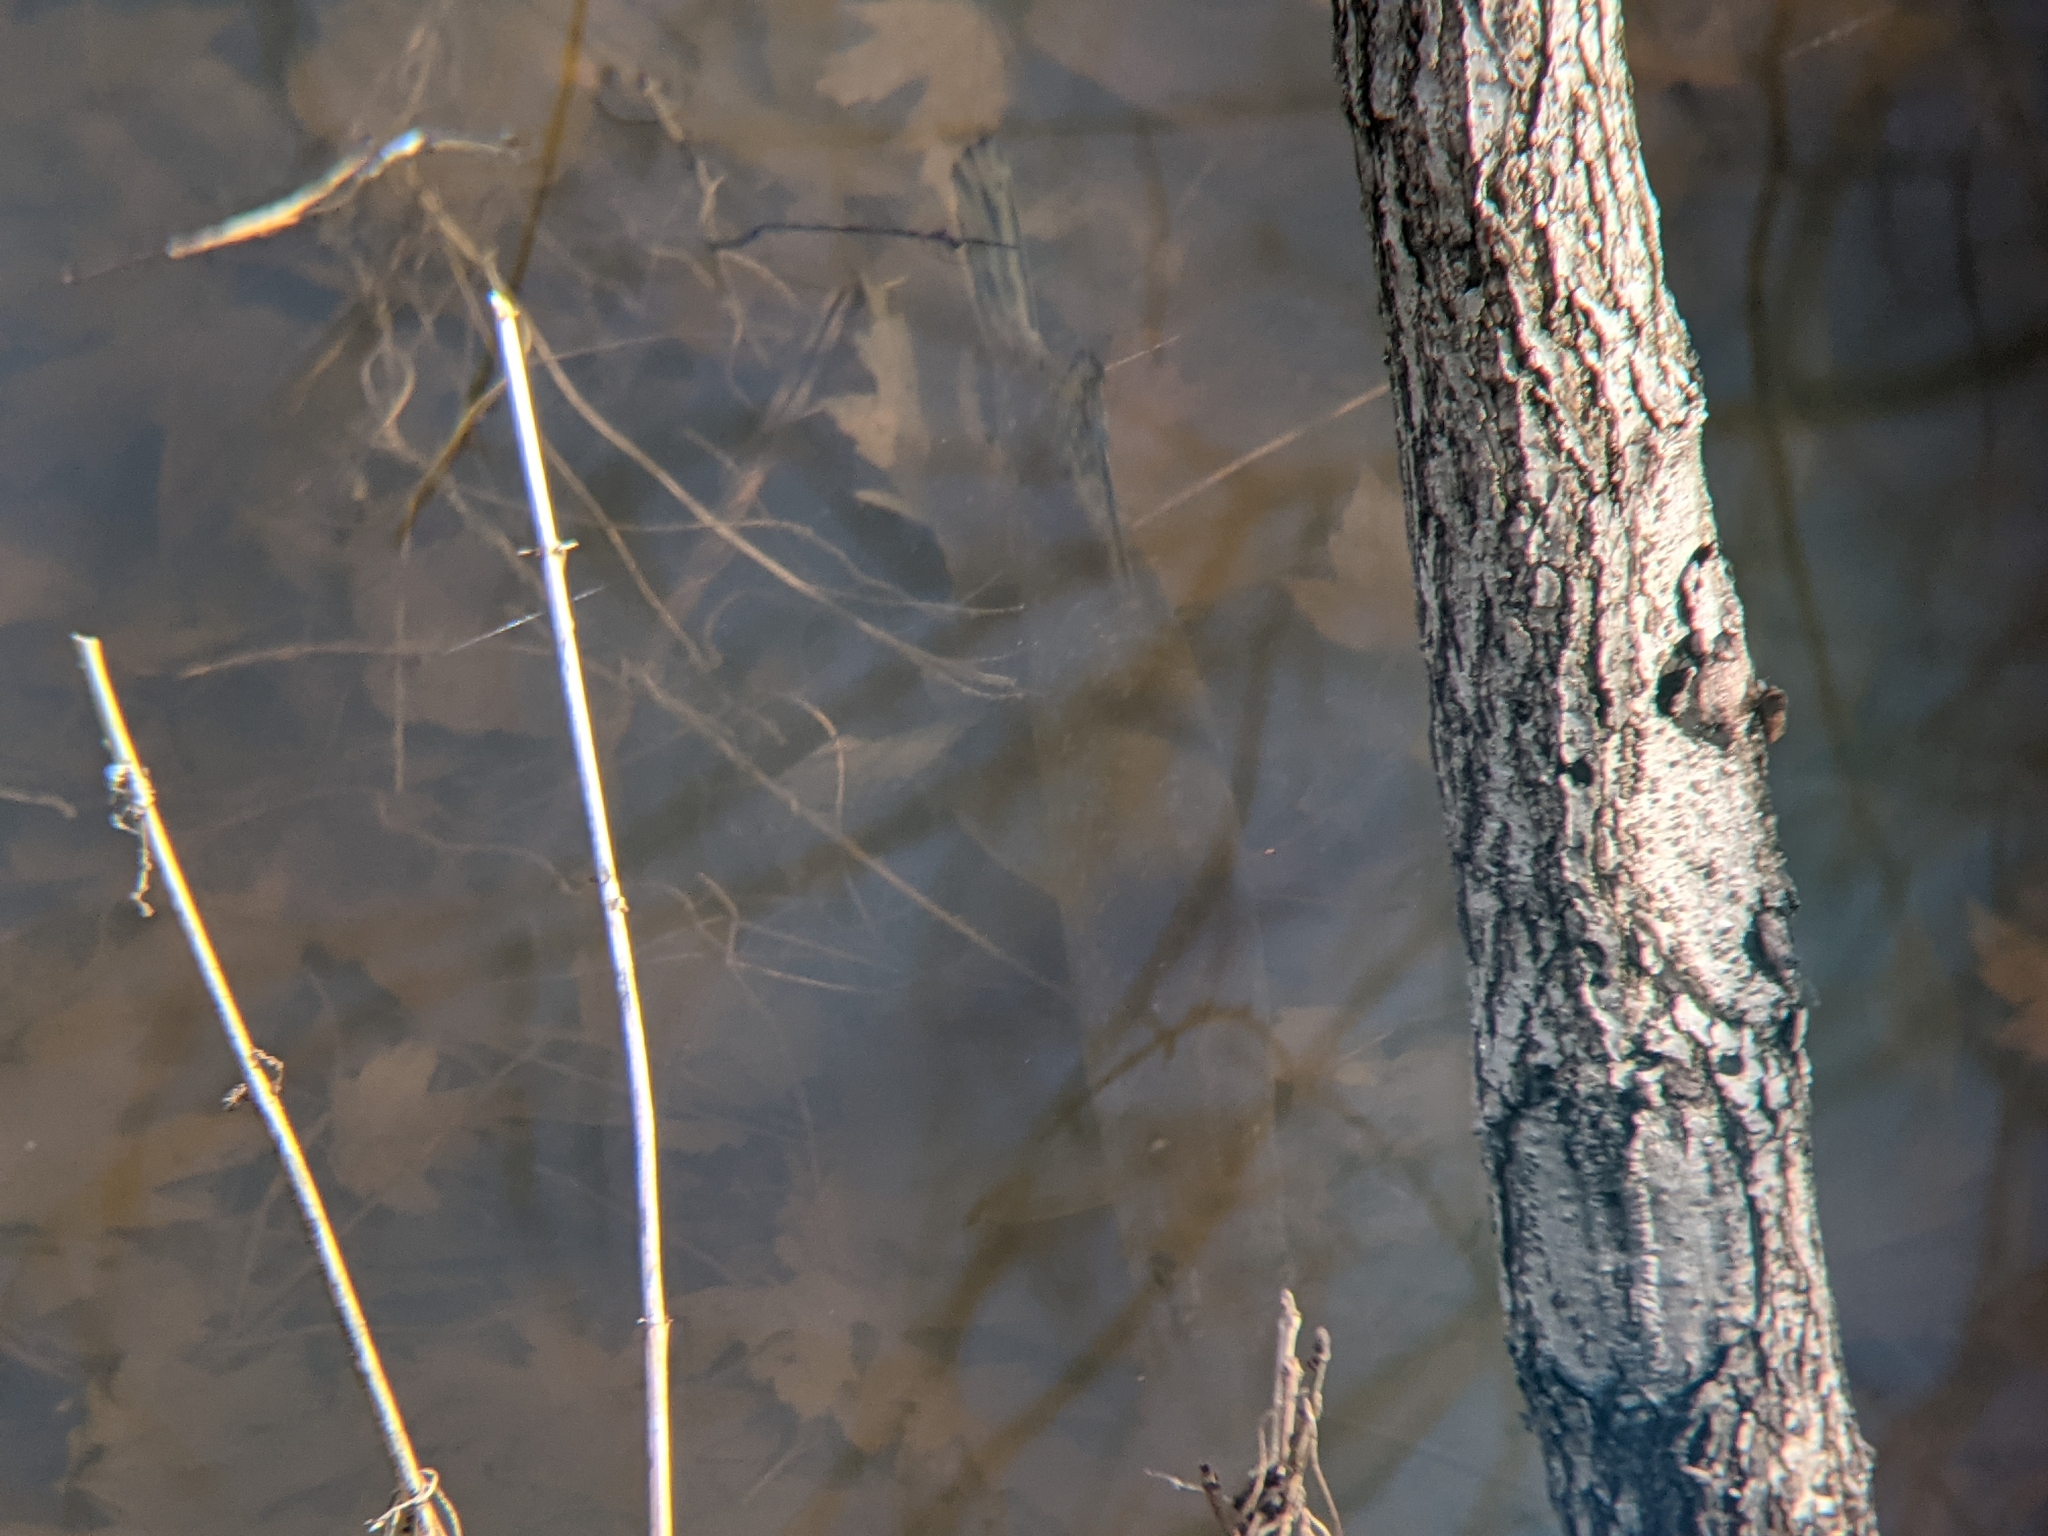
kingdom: Animalia
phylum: Chordata
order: Esociformes
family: Esocidae
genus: Esox
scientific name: Esox lucius
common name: Northern pike
